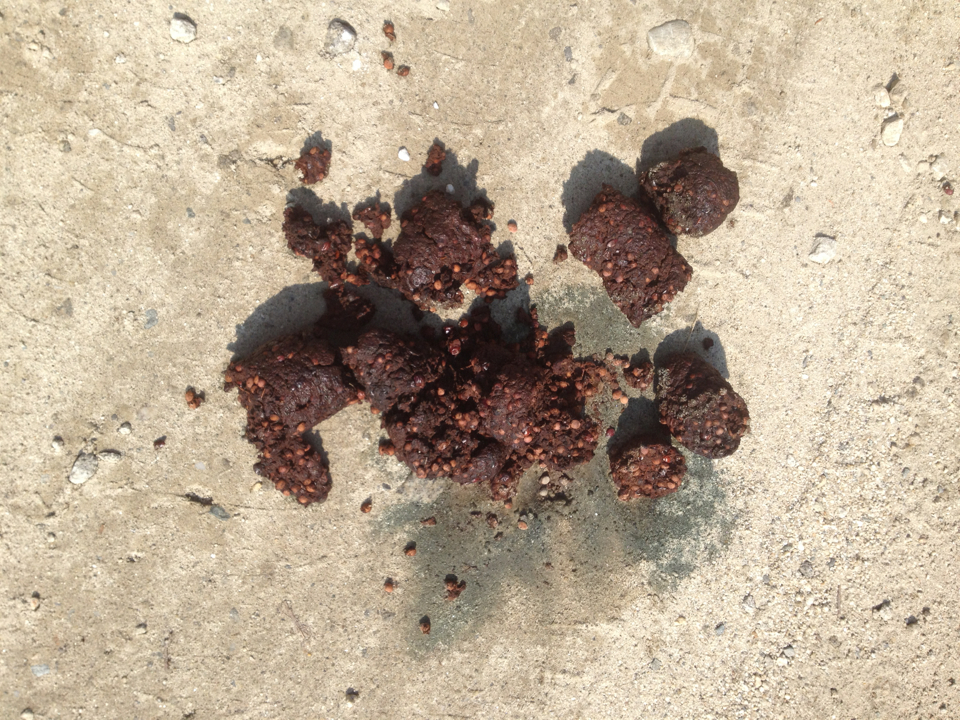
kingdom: Animalia
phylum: Chordata
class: Mammalia
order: Carnivora
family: Ursidae
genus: Ursus
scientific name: Ursus americanus
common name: American black bear
